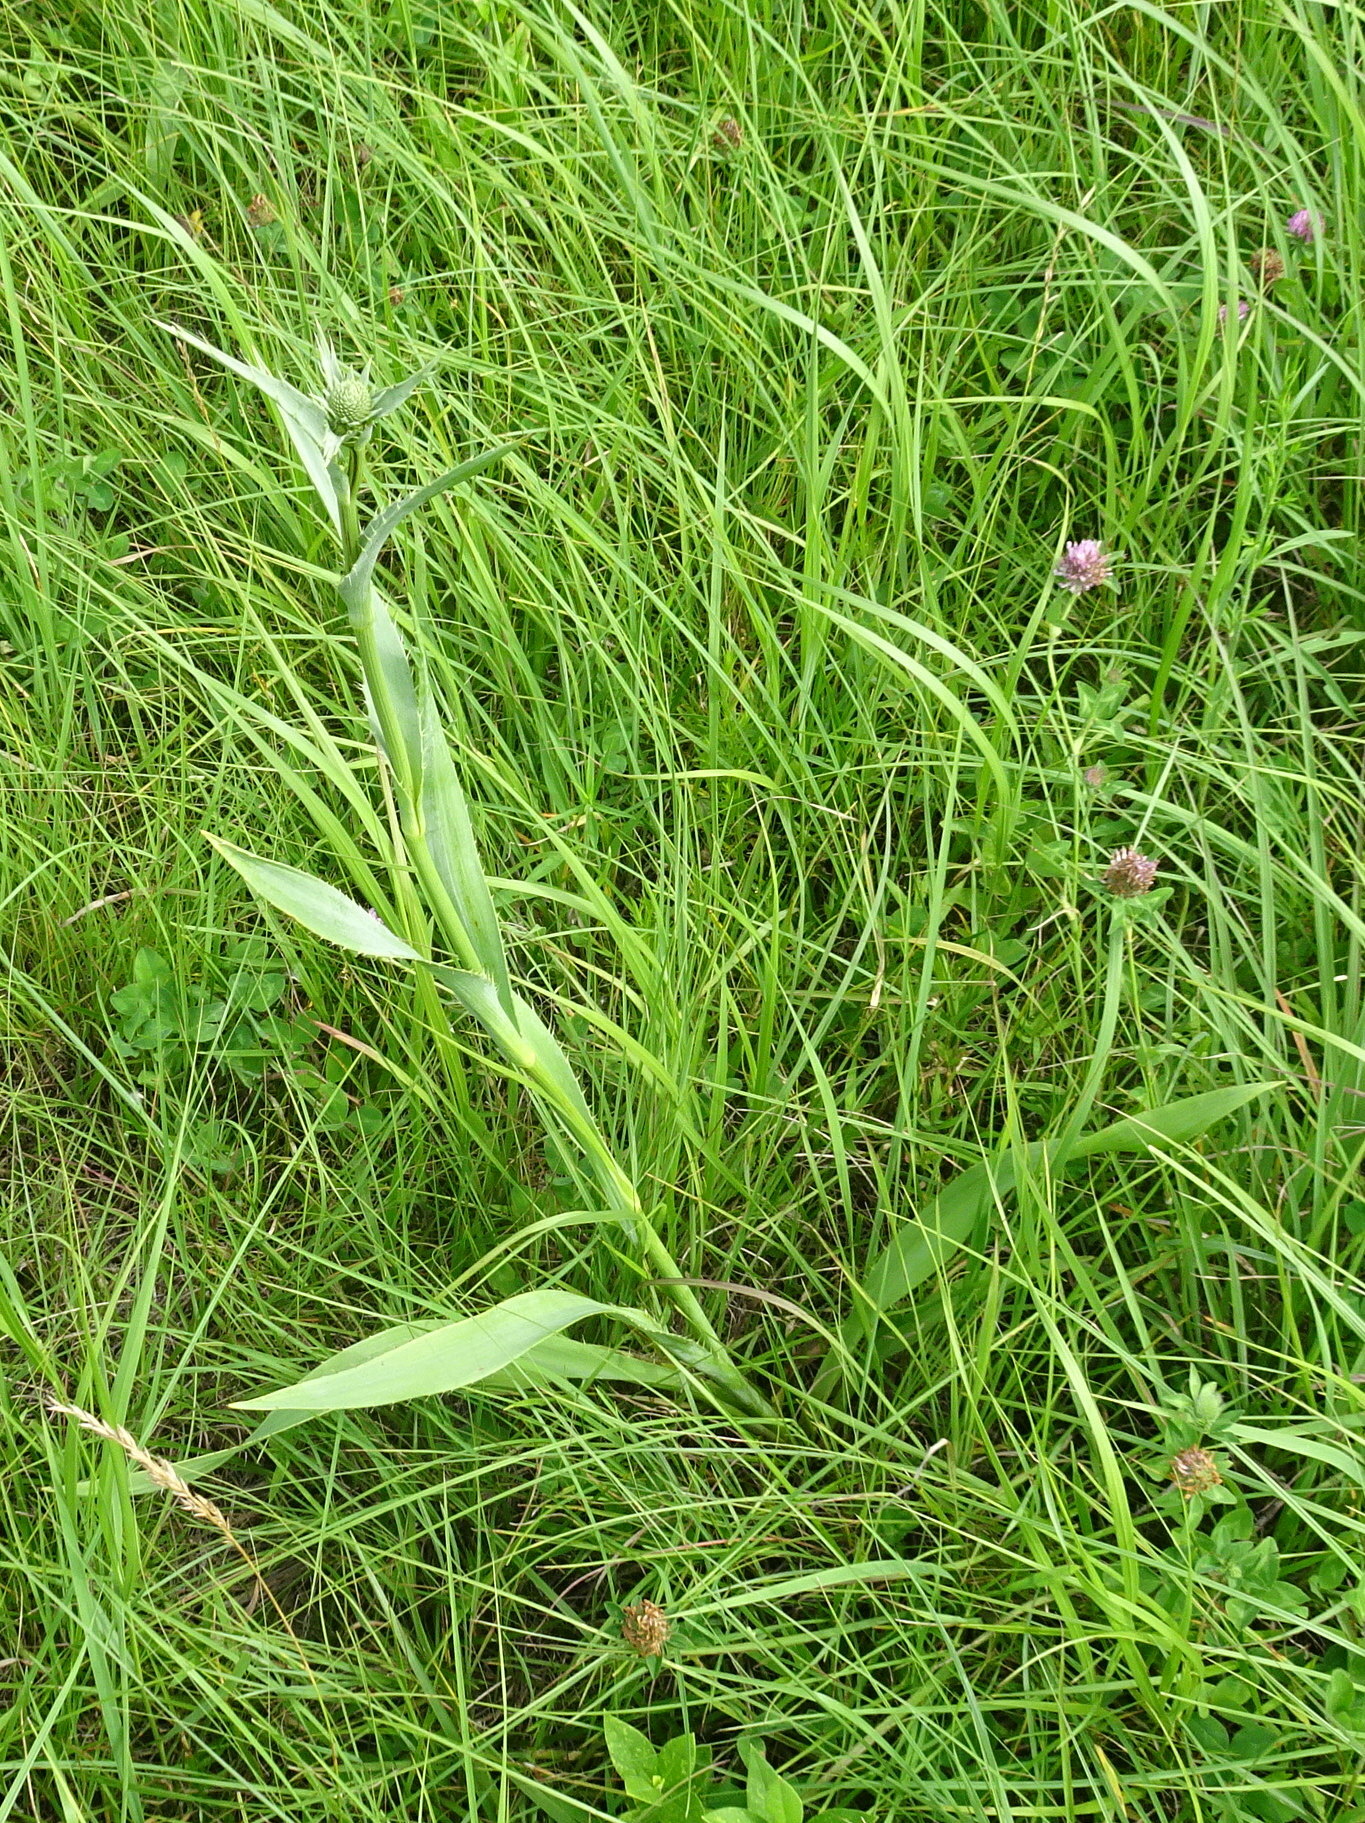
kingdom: Plantae
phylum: Tracheophyta
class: Magnoliopsida
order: Apiales
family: Apiaceae
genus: Eryngium
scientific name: Eryngium yuccifolium
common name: Button eryngo
